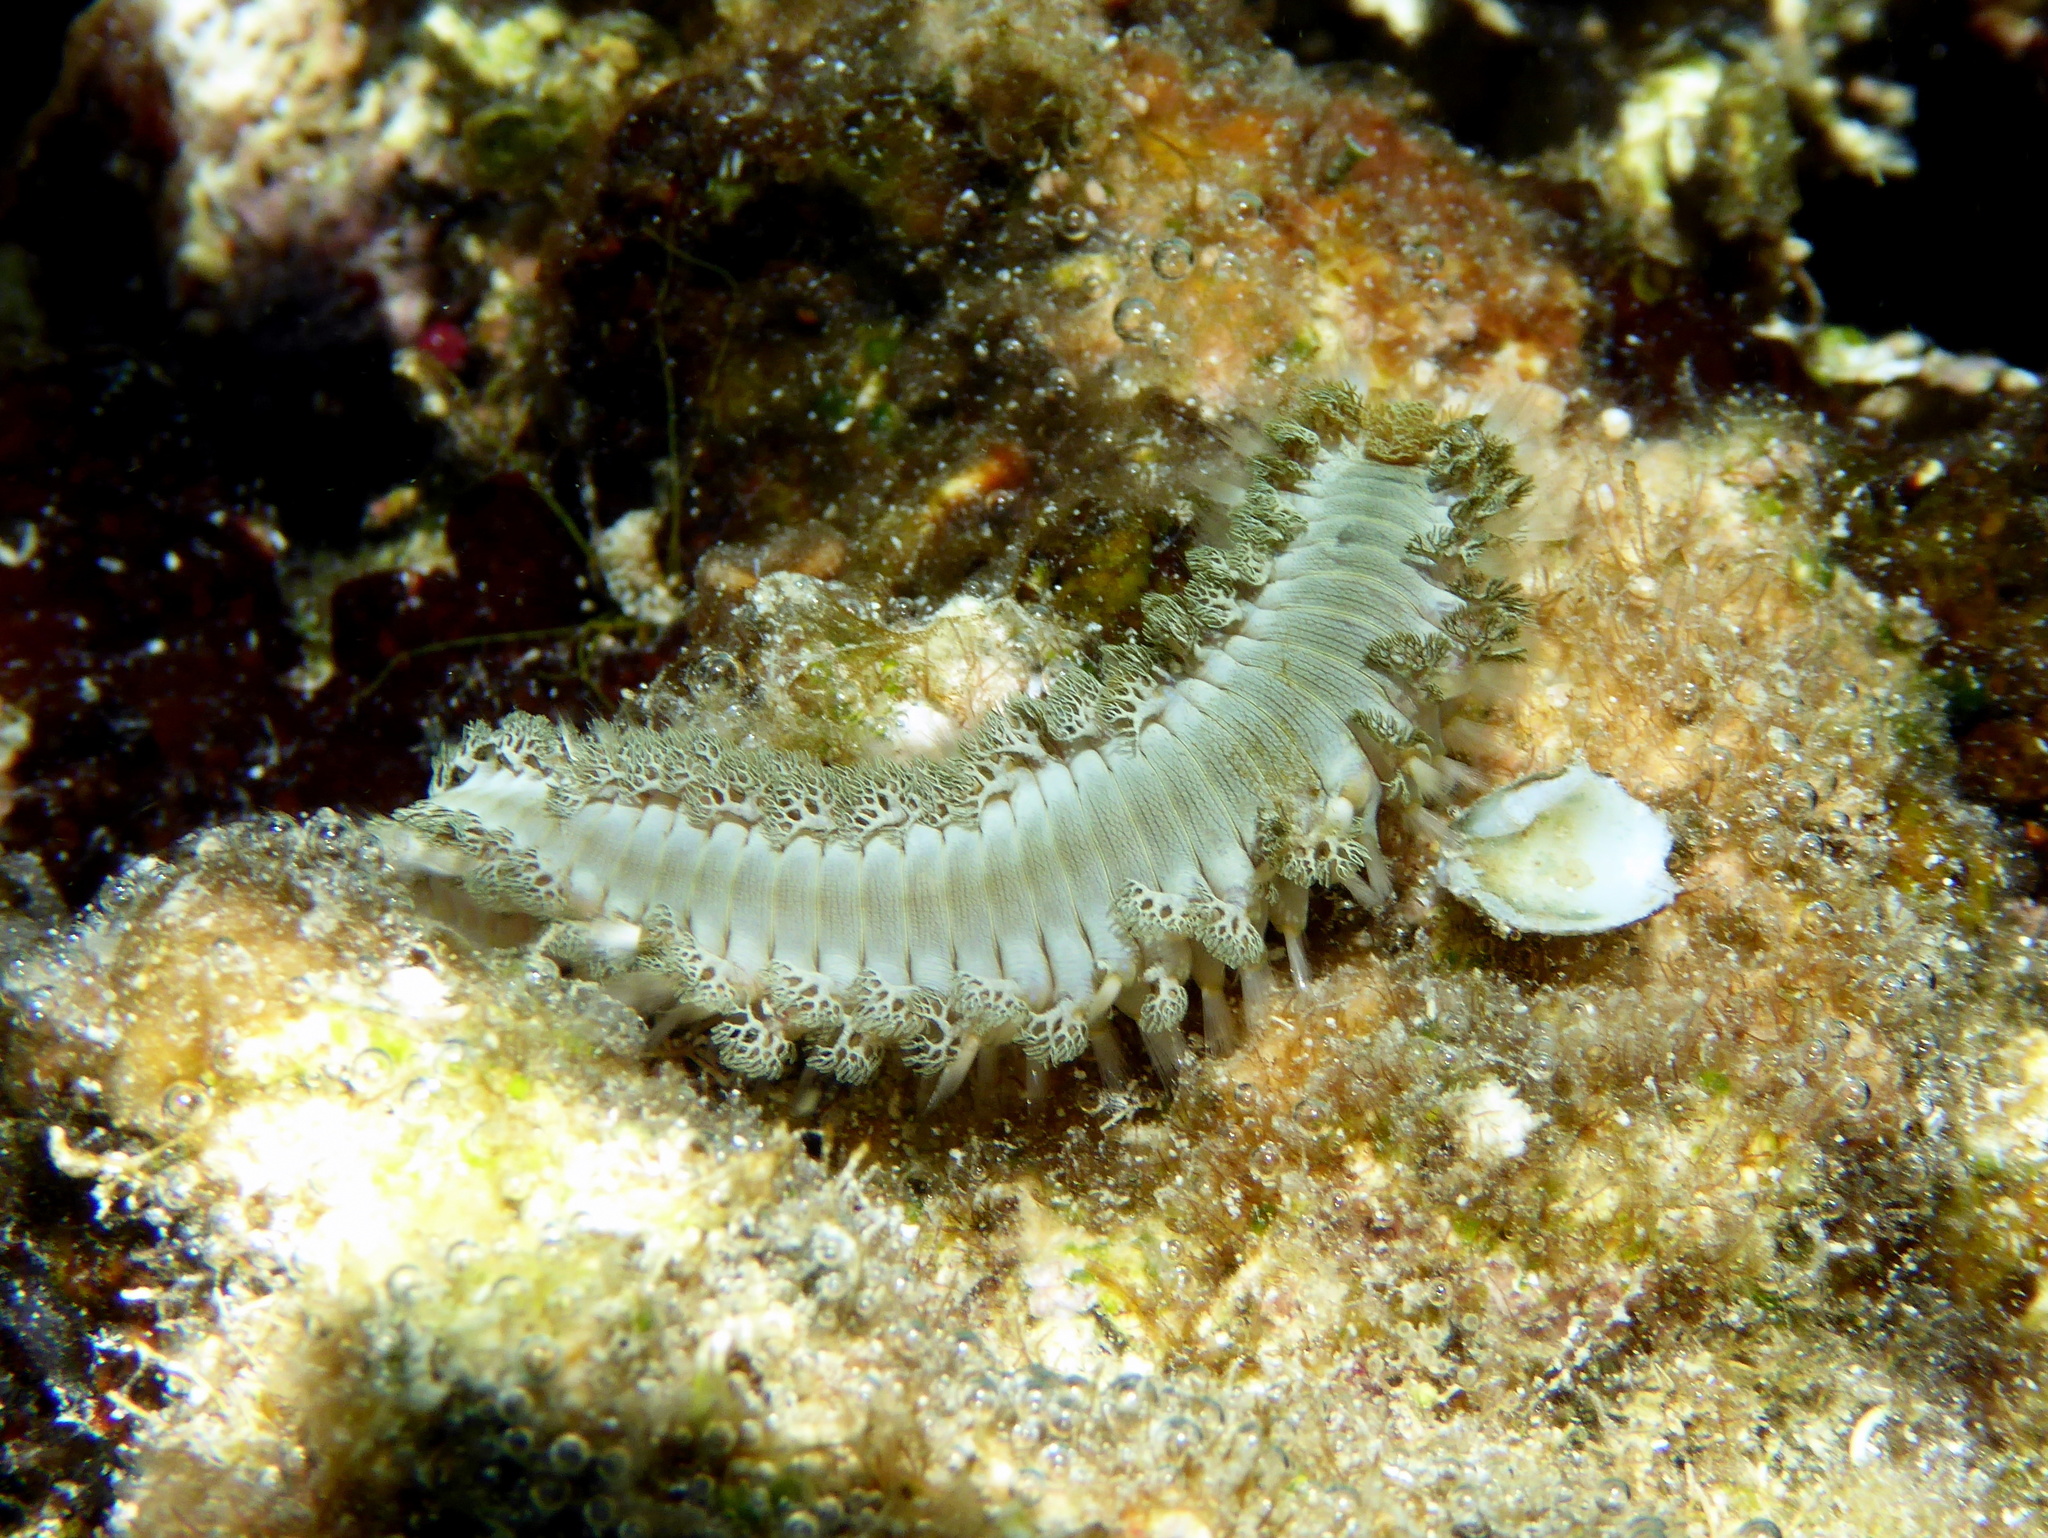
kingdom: Animalia
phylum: Annelida
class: Polychaeta
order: Amphinomida
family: Amphinomidae
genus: Hermodice
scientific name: Hermodice carunculata
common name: Bearded fireworm
